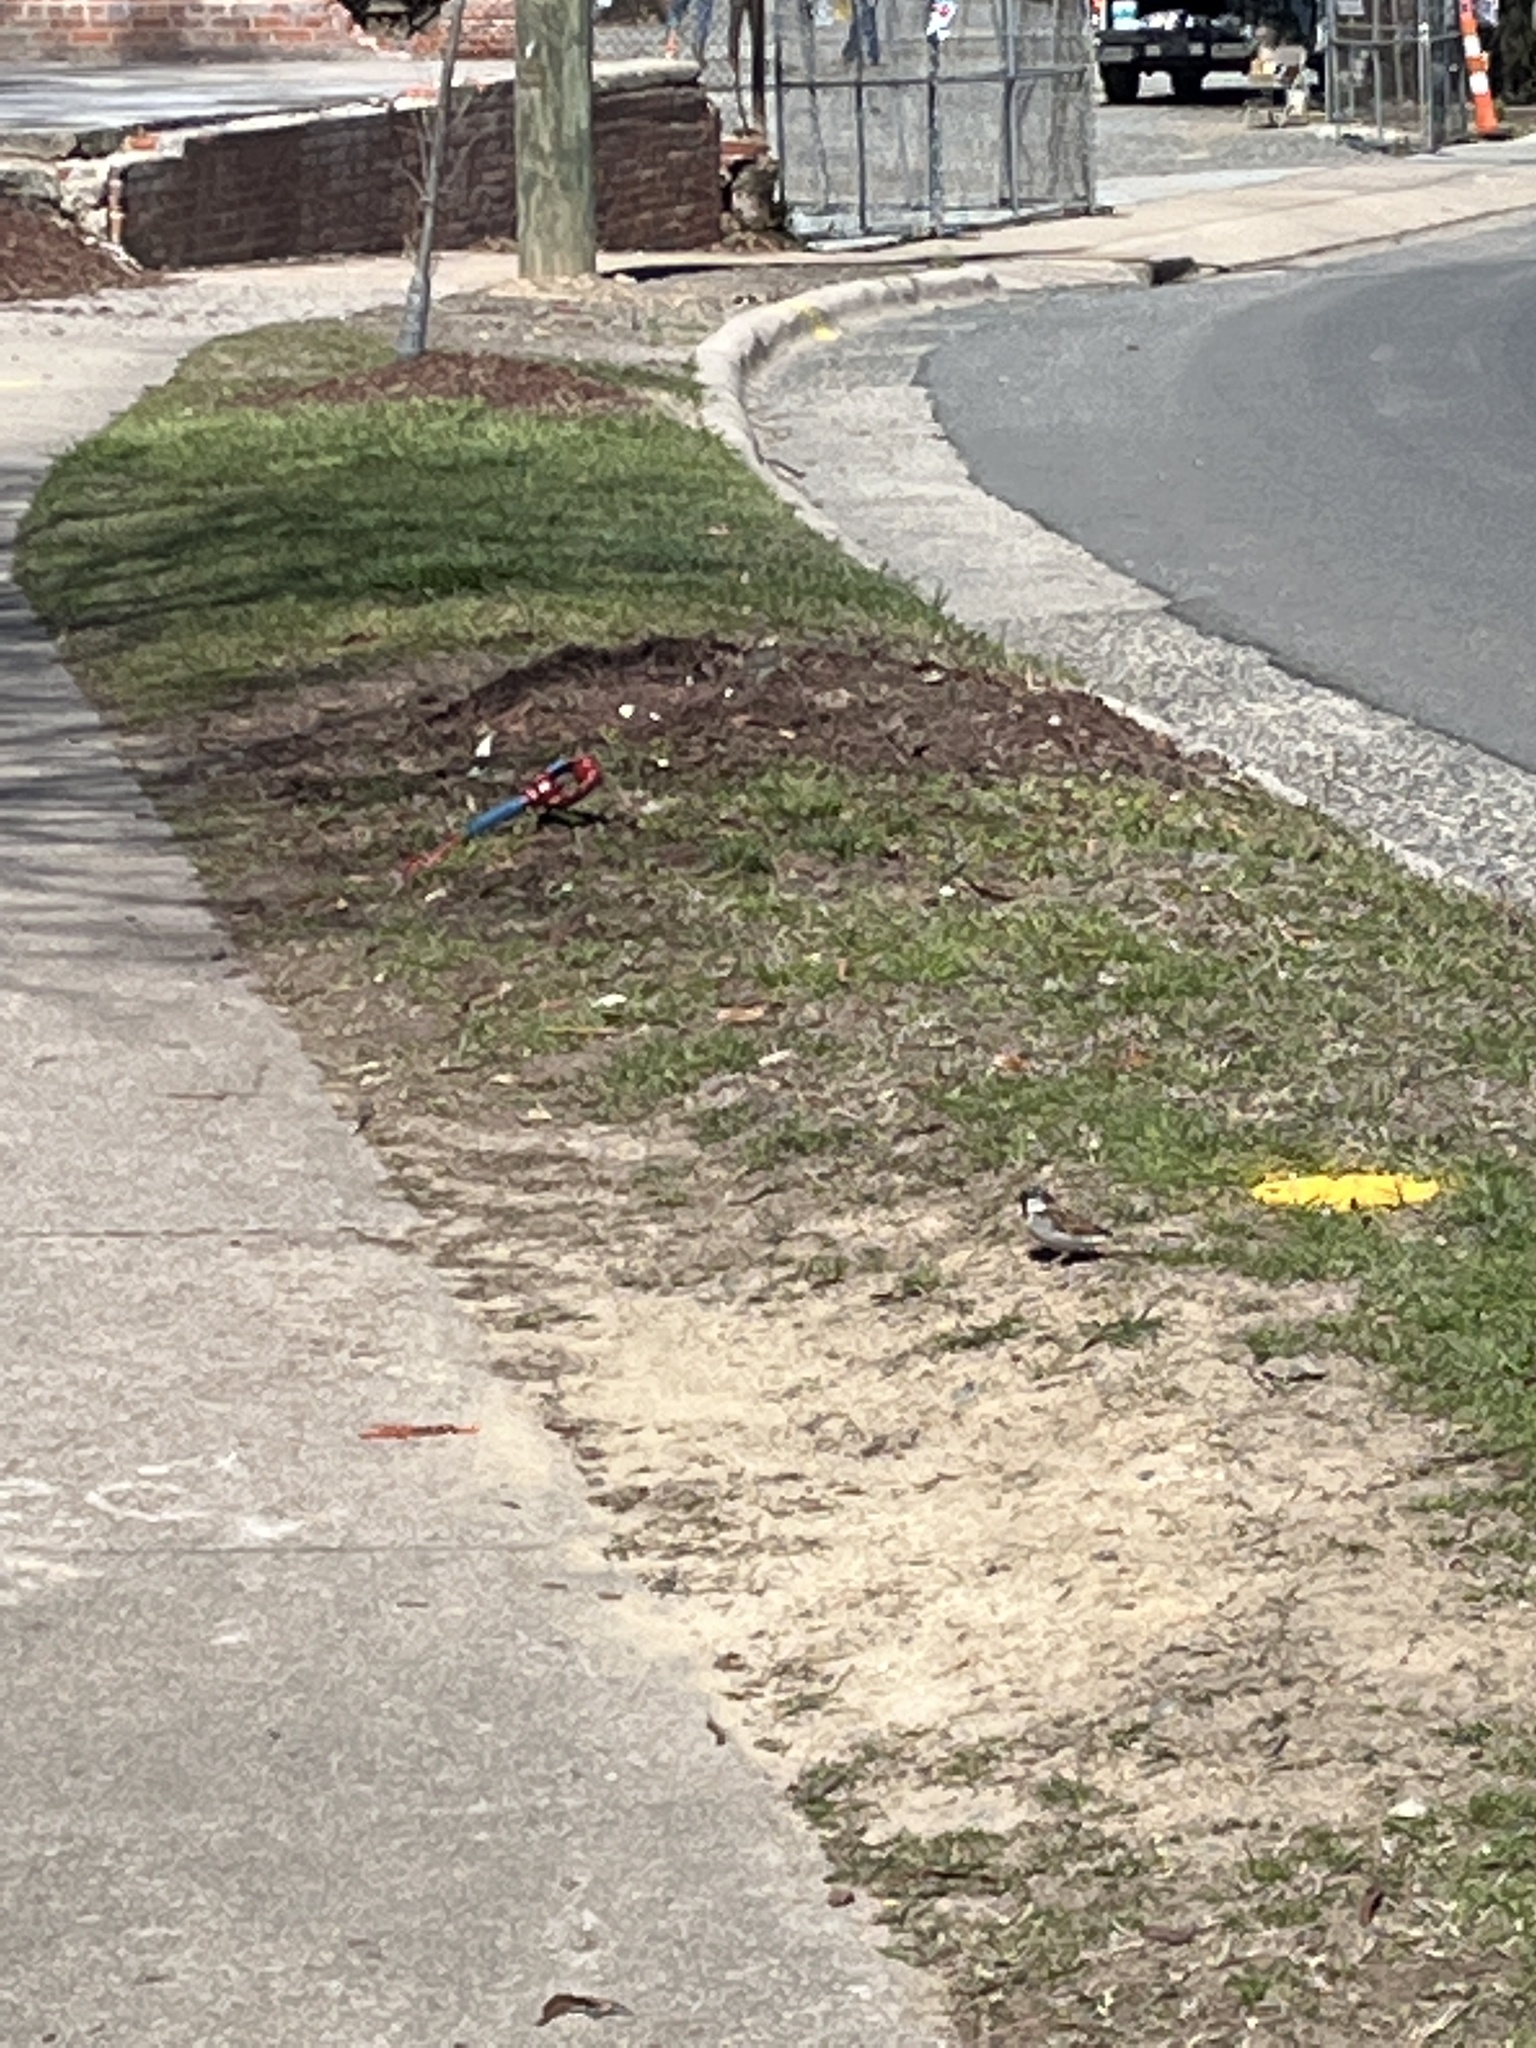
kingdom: Animalia
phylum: Chordata
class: Aves
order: Passeriformes
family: Passeridae
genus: Passer
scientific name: Passer domesticus
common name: House sparrow
